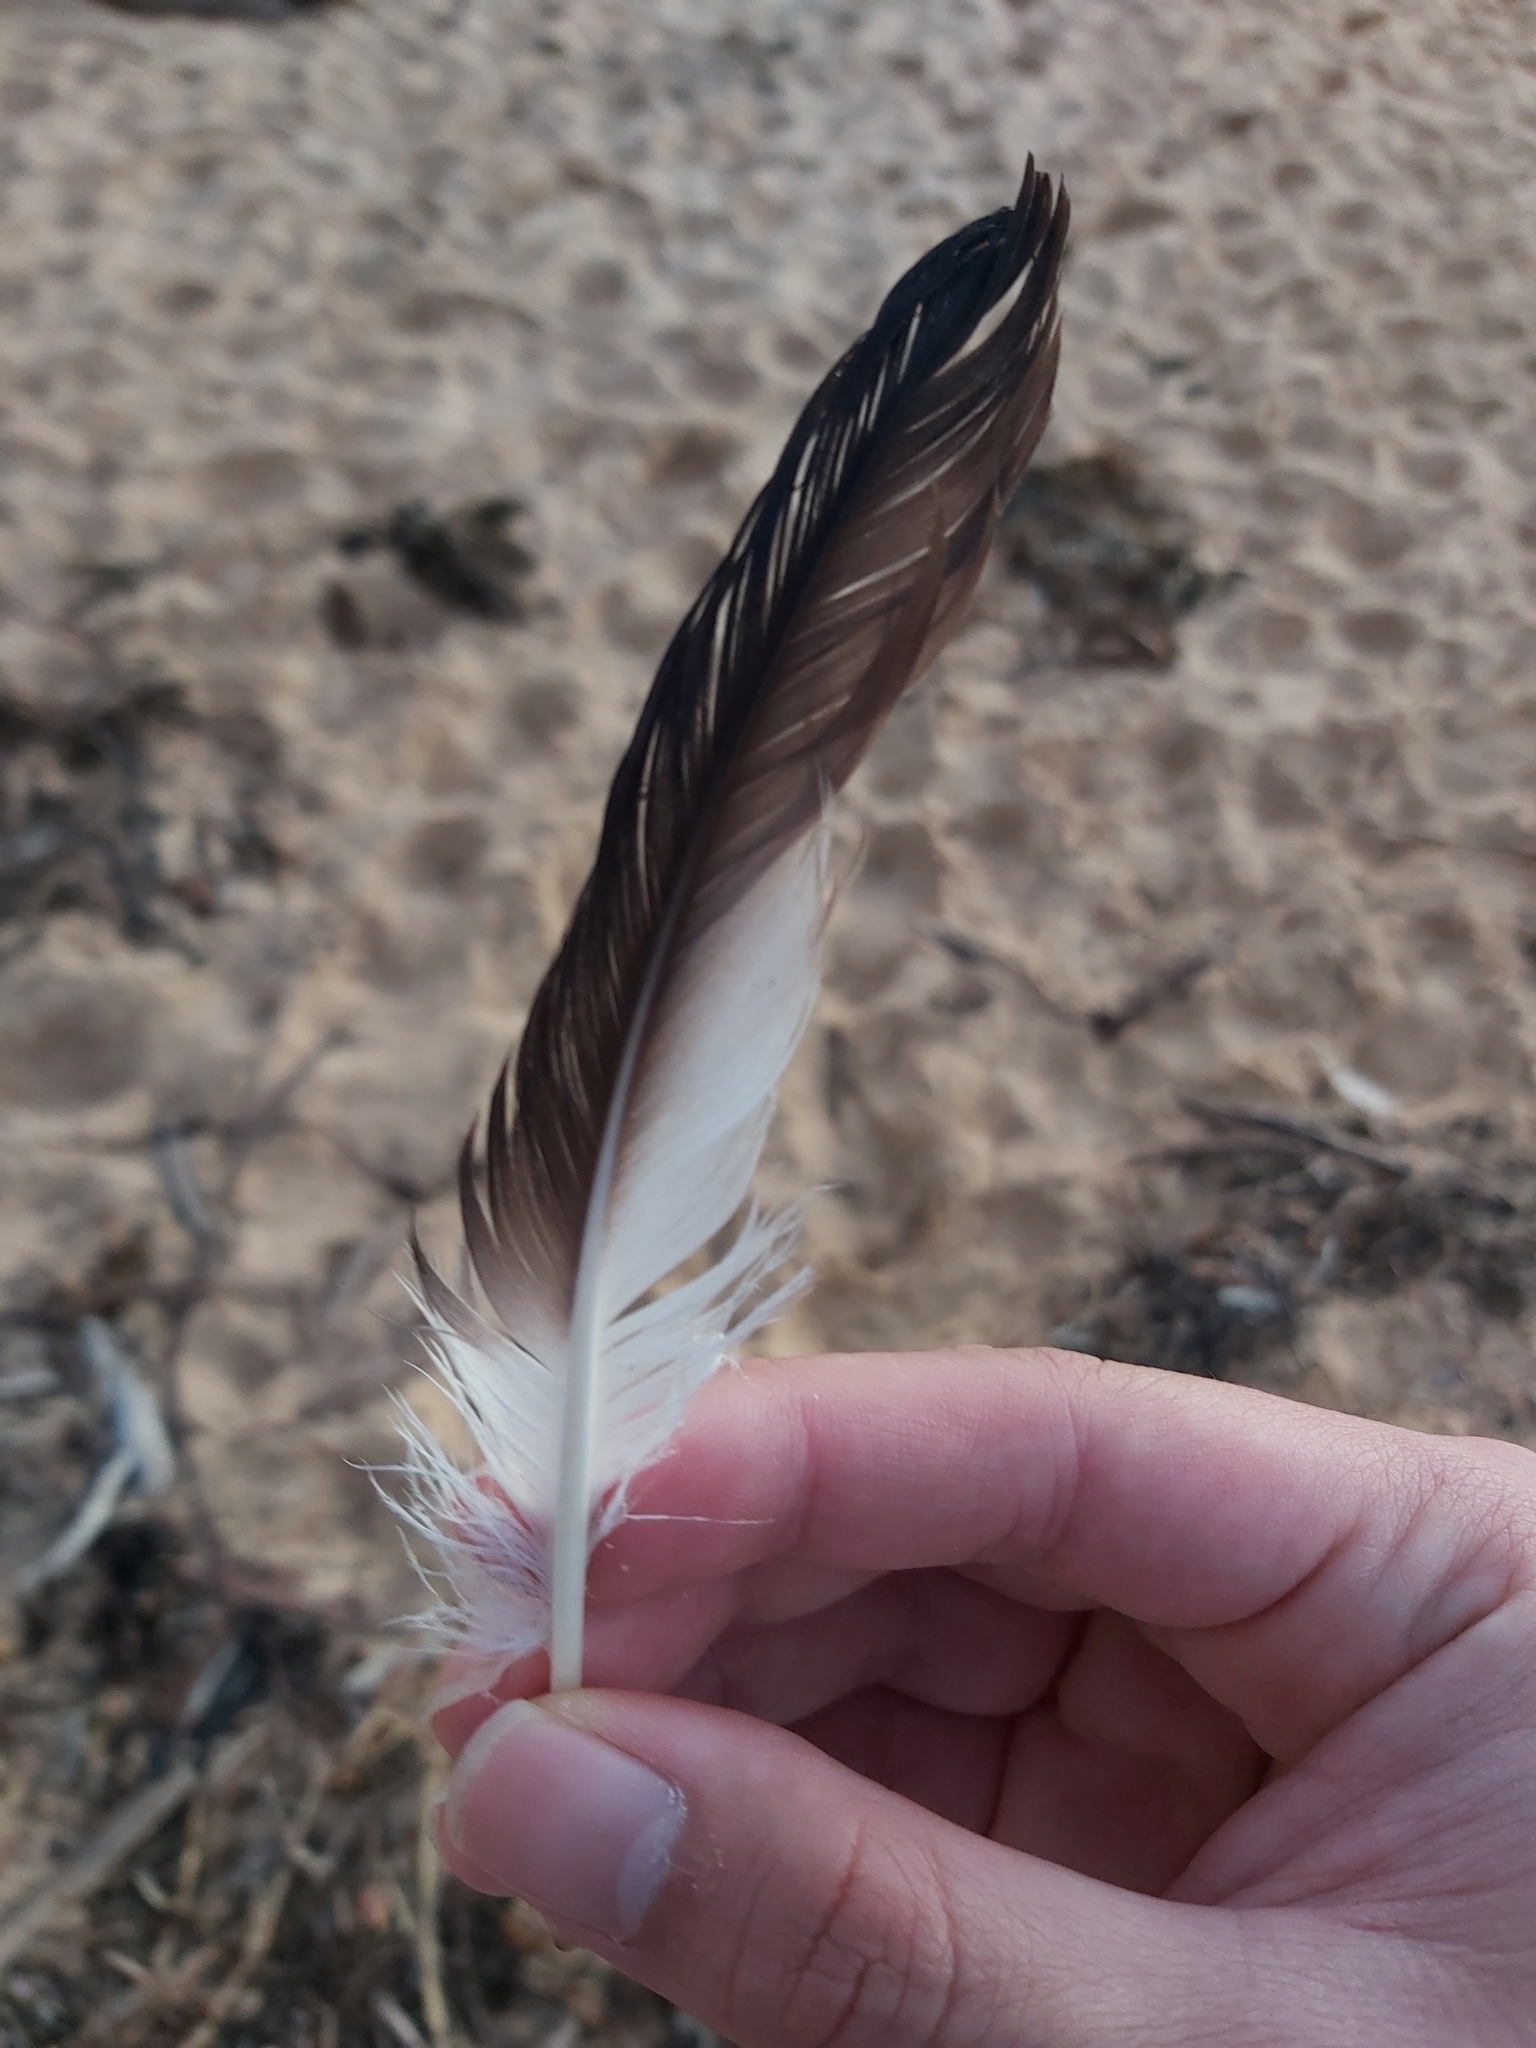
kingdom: Animalia
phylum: Chordata
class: Aves
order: Suliformes
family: Sulidae
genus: Morus
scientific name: Morus serrator
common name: Australasian gannet
